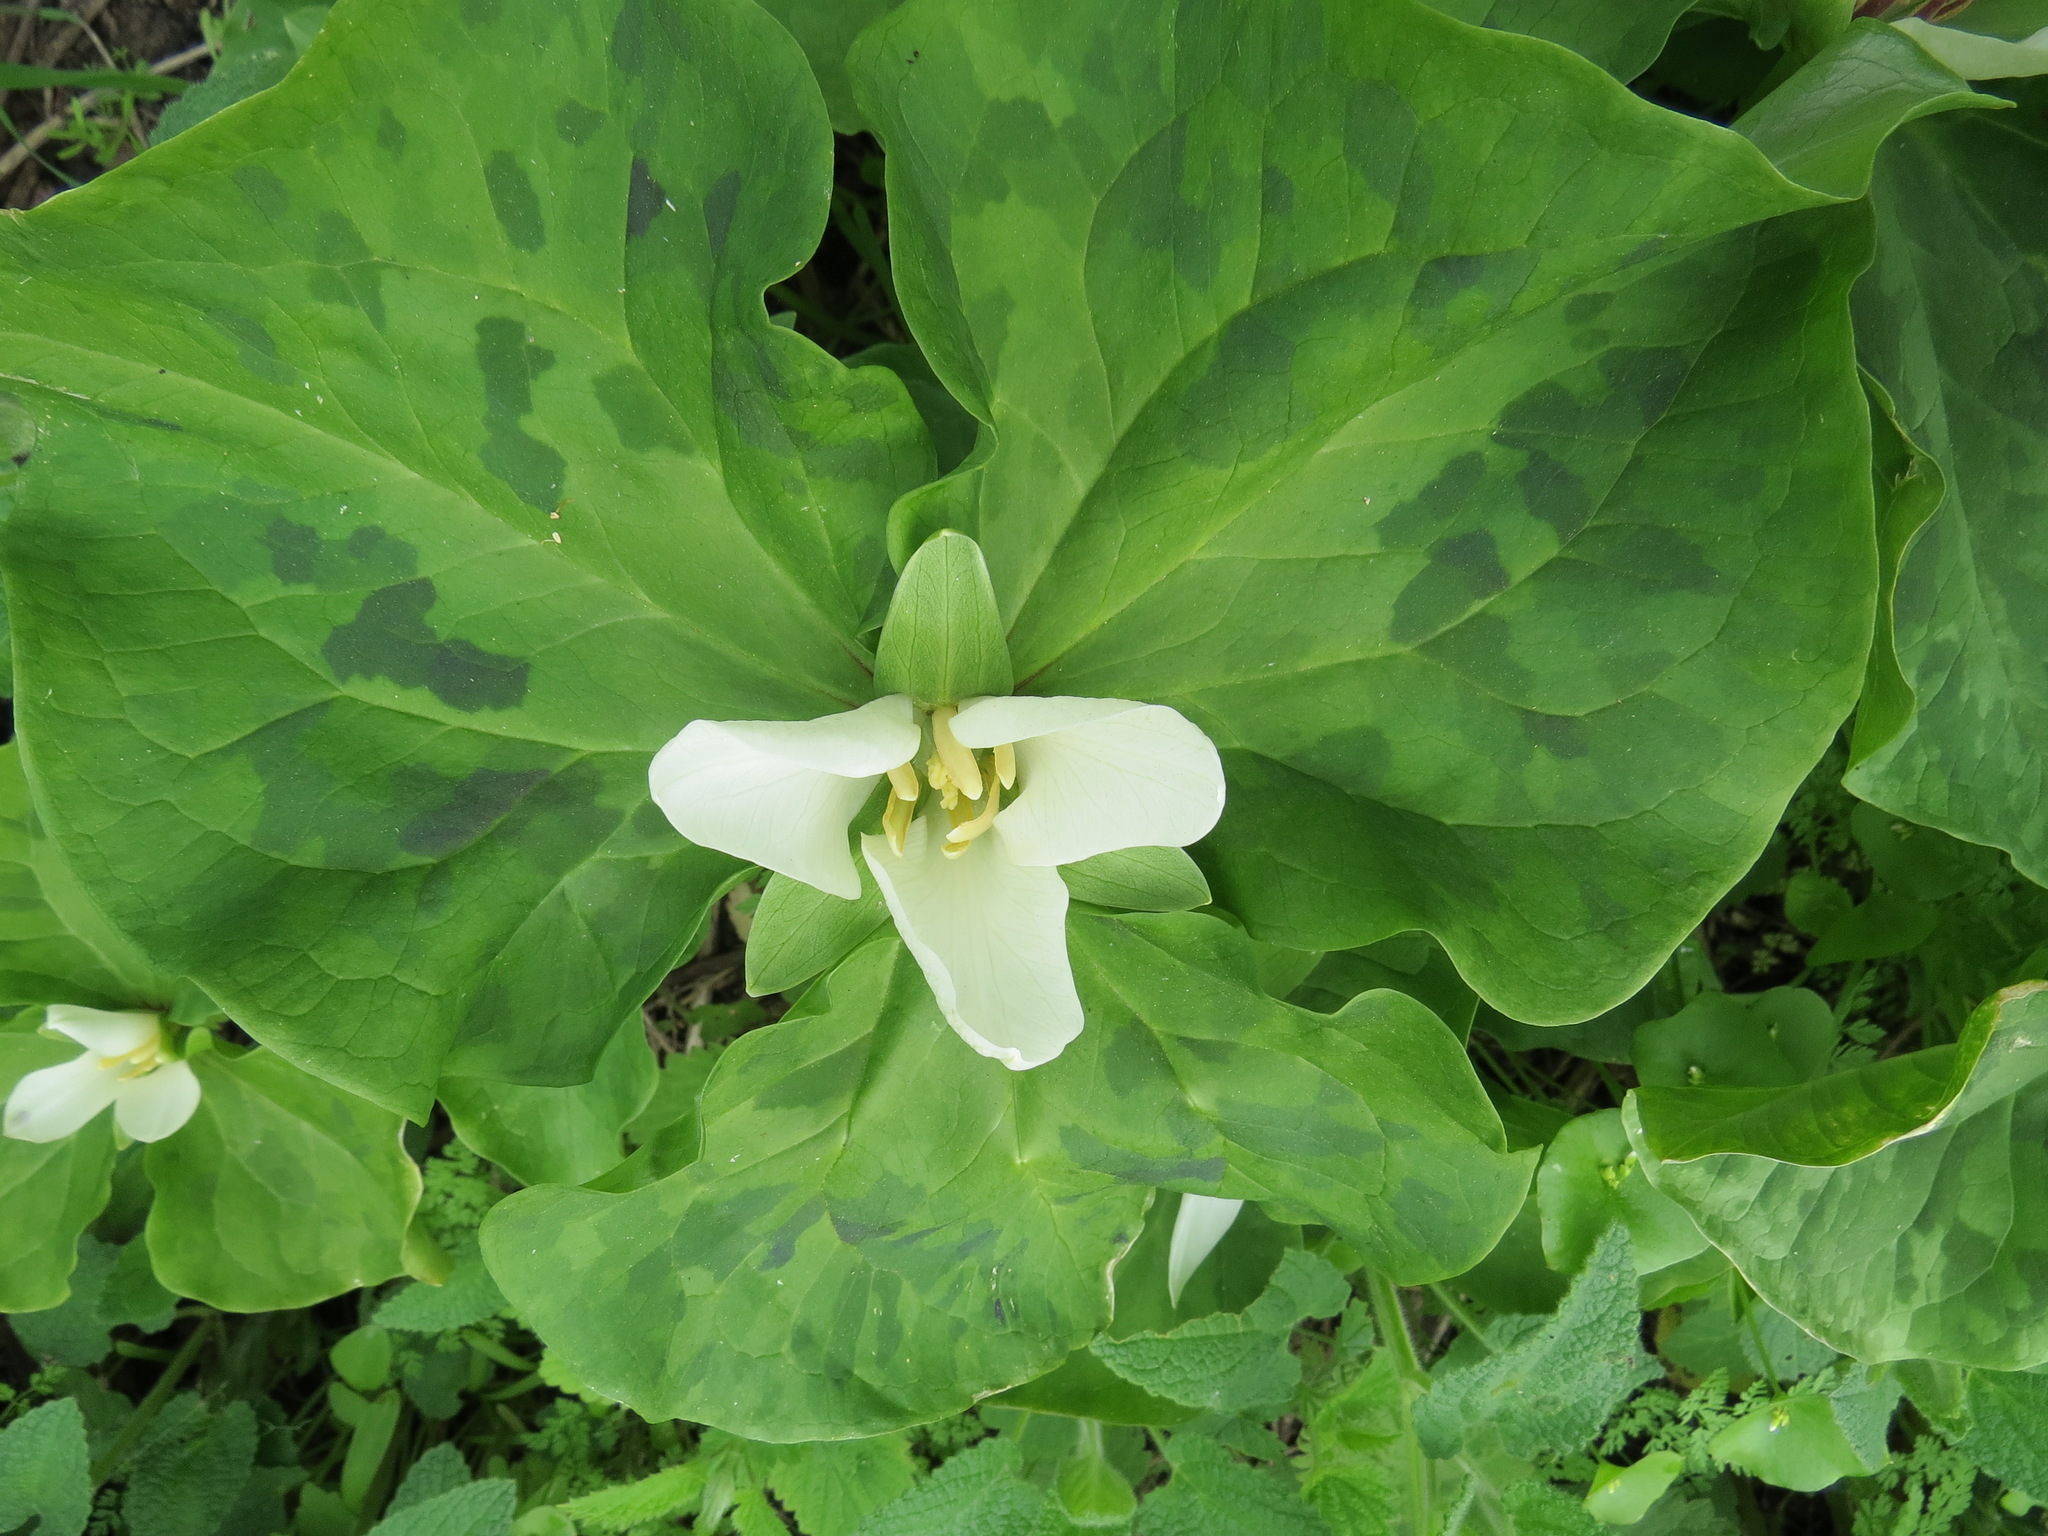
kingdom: Plantae
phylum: Tracheophyta
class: Liliopsida
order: Liliales
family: Melanthiaceae
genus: Trillium
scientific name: Trillium chloropetalum
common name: Giant trillium
